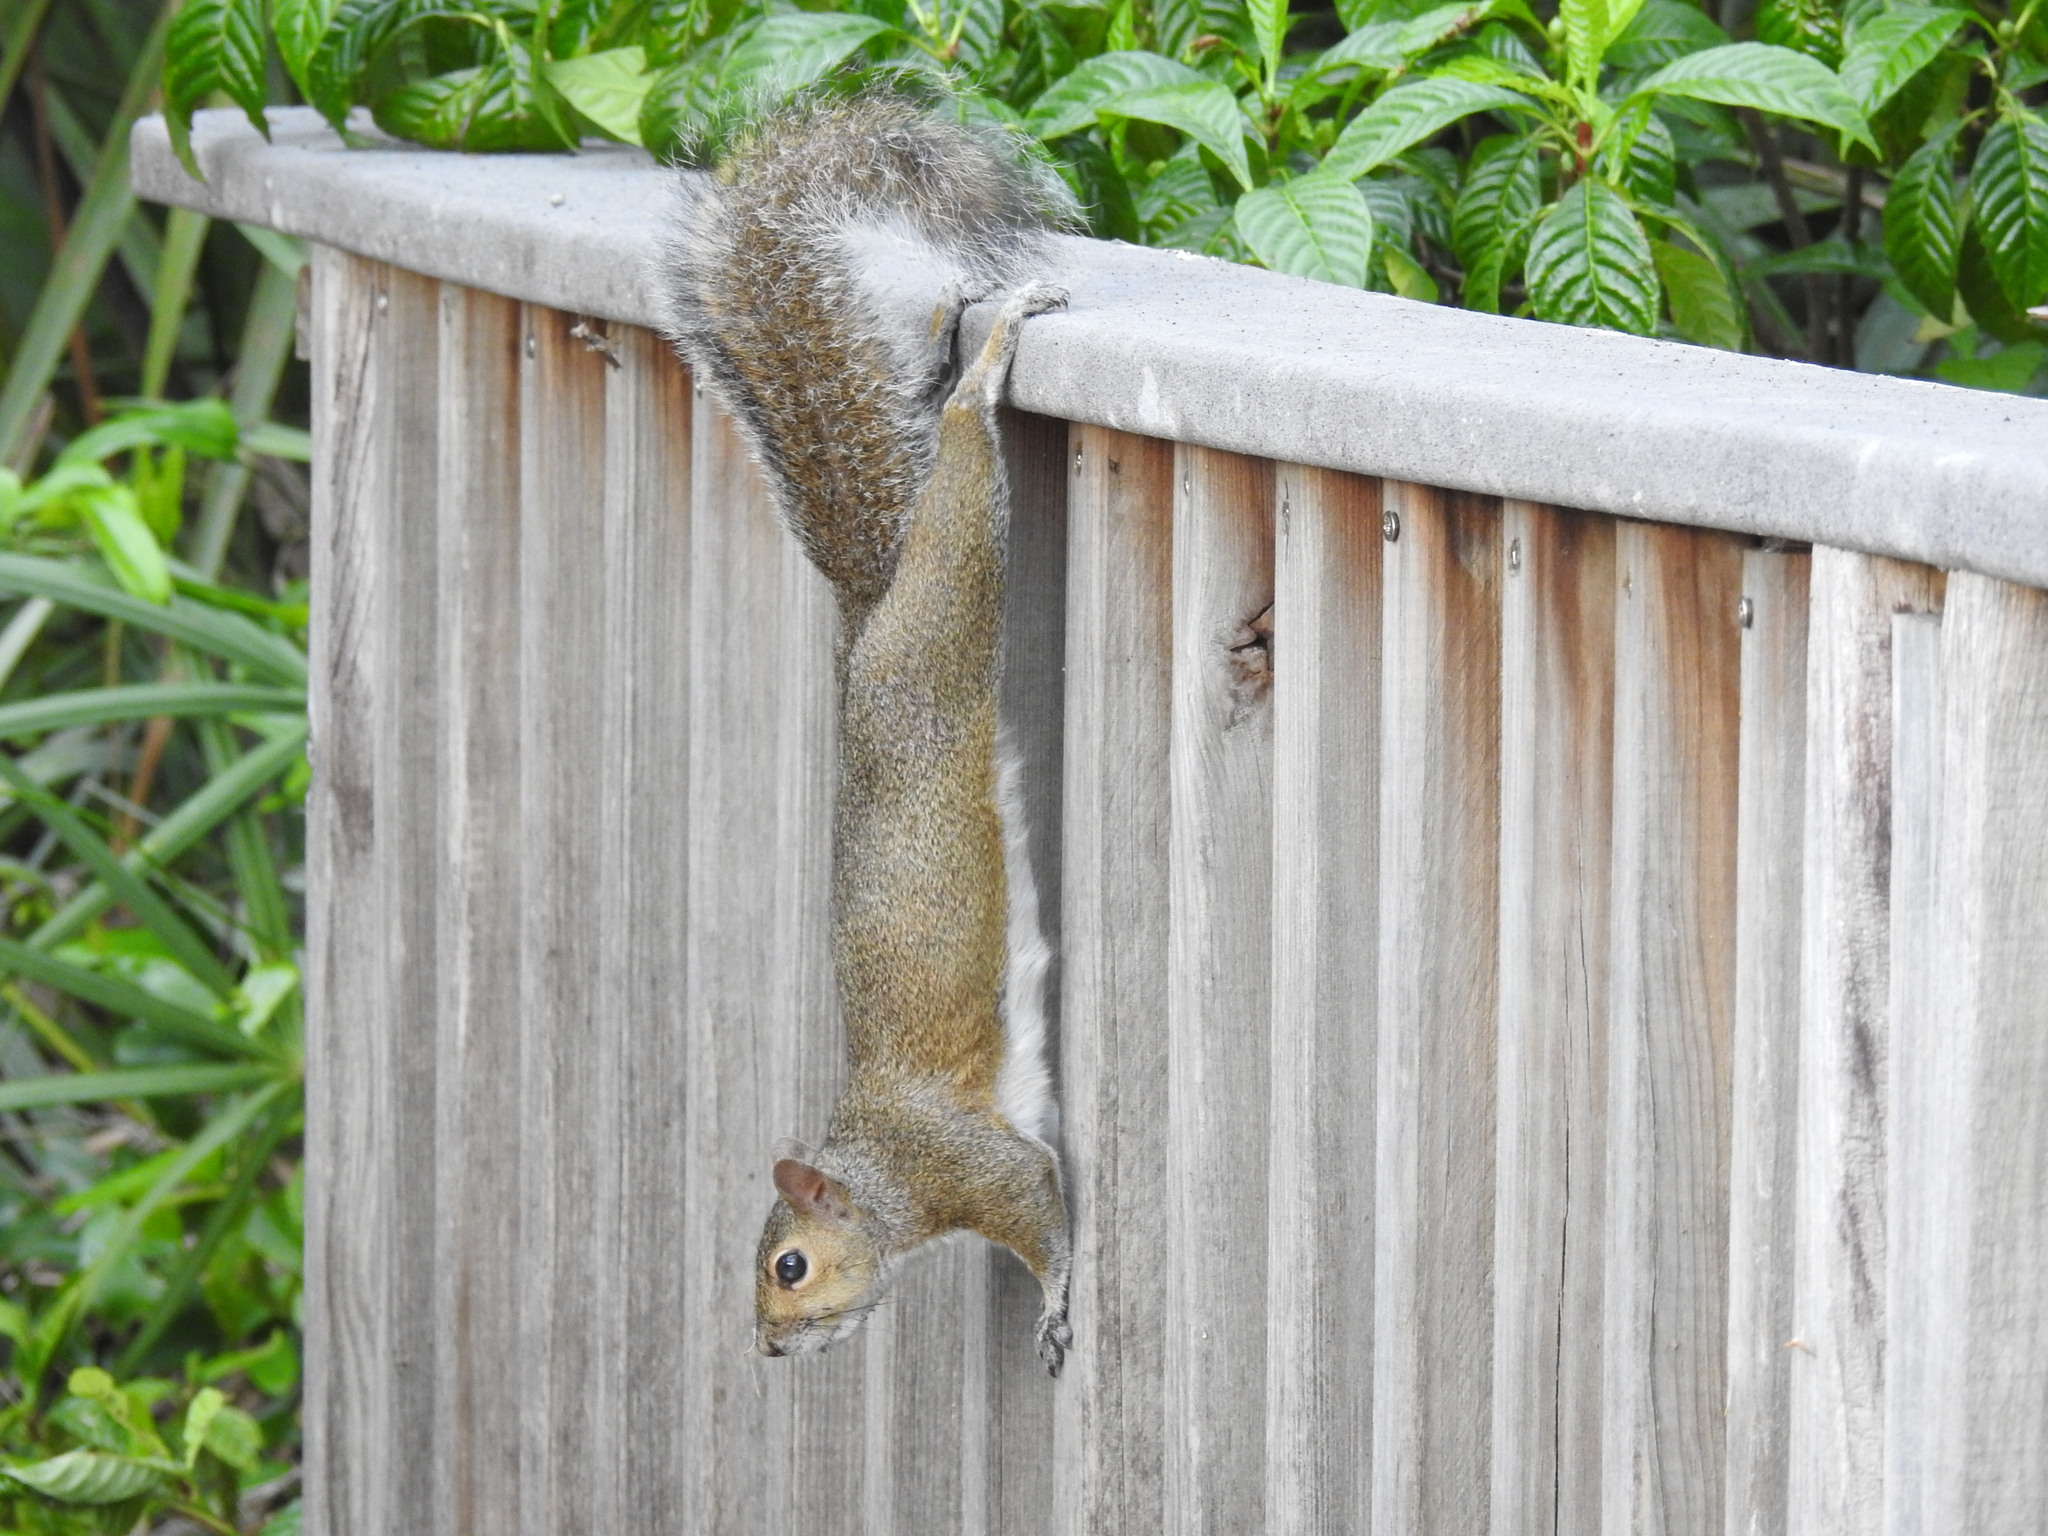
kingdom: Animalia
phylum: Chordata
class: Mammalia
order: Rodentia
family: Sciuridae
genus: Sciurus
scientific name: Sciurus carolinensis
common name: Eastern gray squirrel
